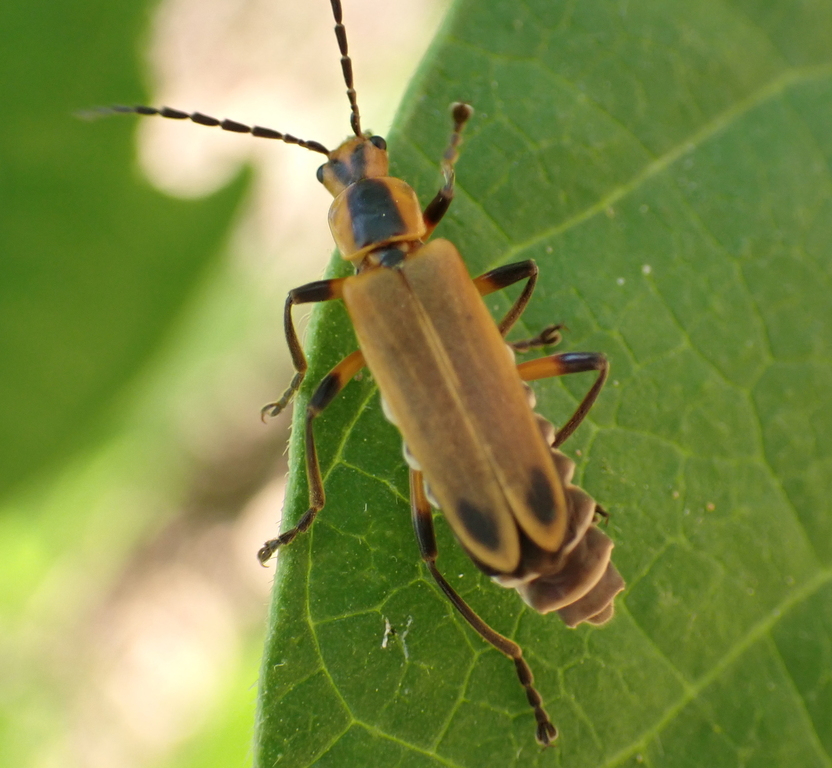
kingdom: Animalia
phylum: Arthropoda
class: Insecta
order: Coleoptera
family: Cantharidae
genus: Chauliognathus
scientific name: Chauliognathus marginatus
